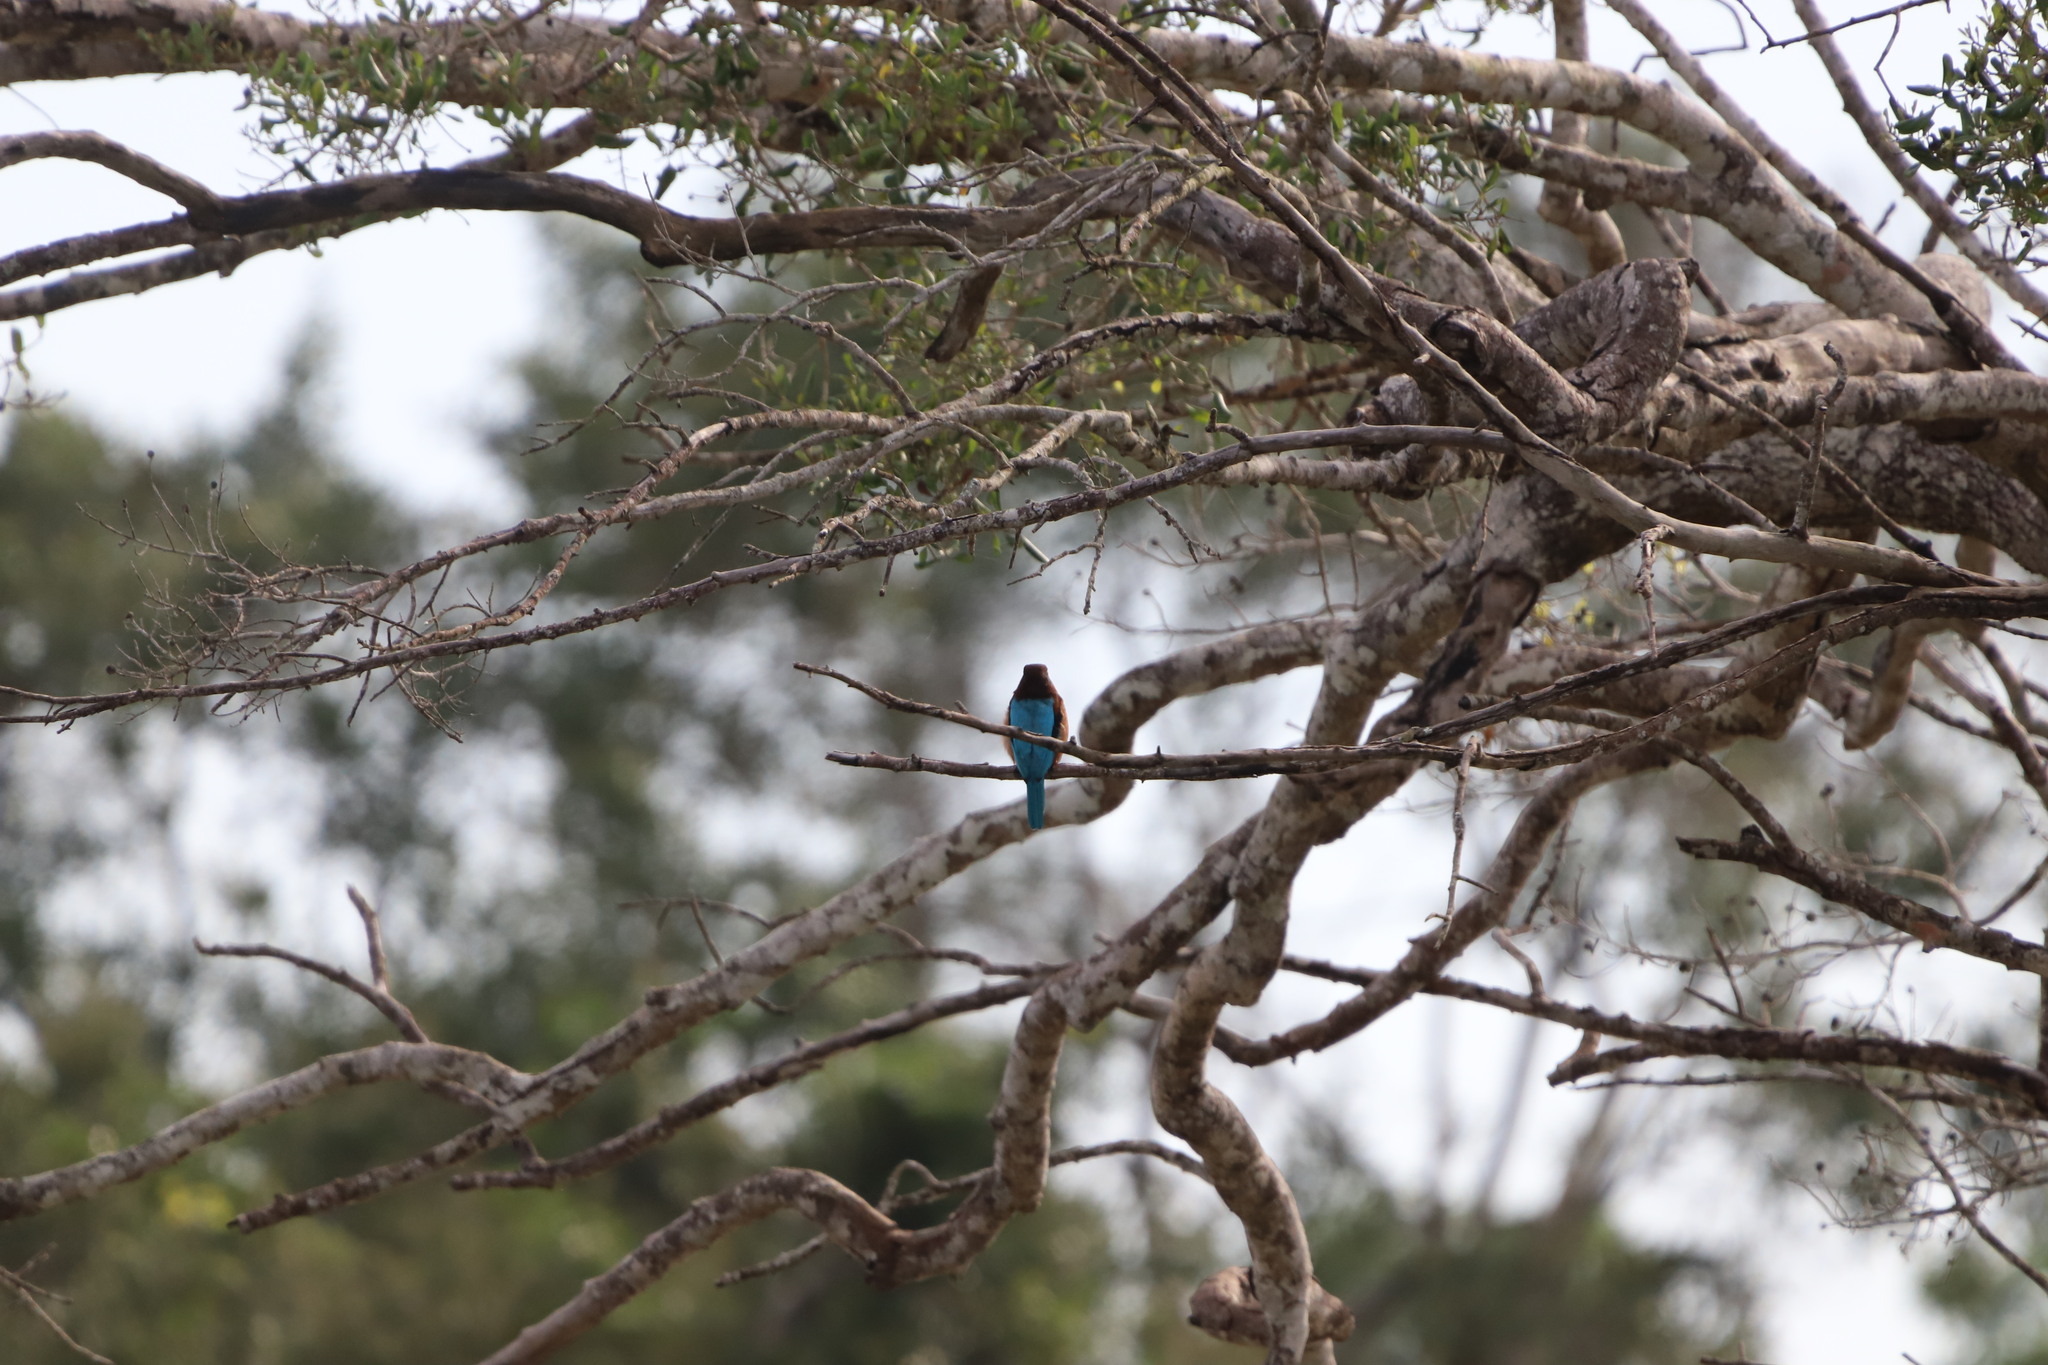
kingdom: Animalia
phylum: Chordata
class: Aves
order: Coraciiformes
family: Alcedinidae
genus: Halcyon
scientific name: Halcyon smyrnensis
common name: White-throated kingfisher
